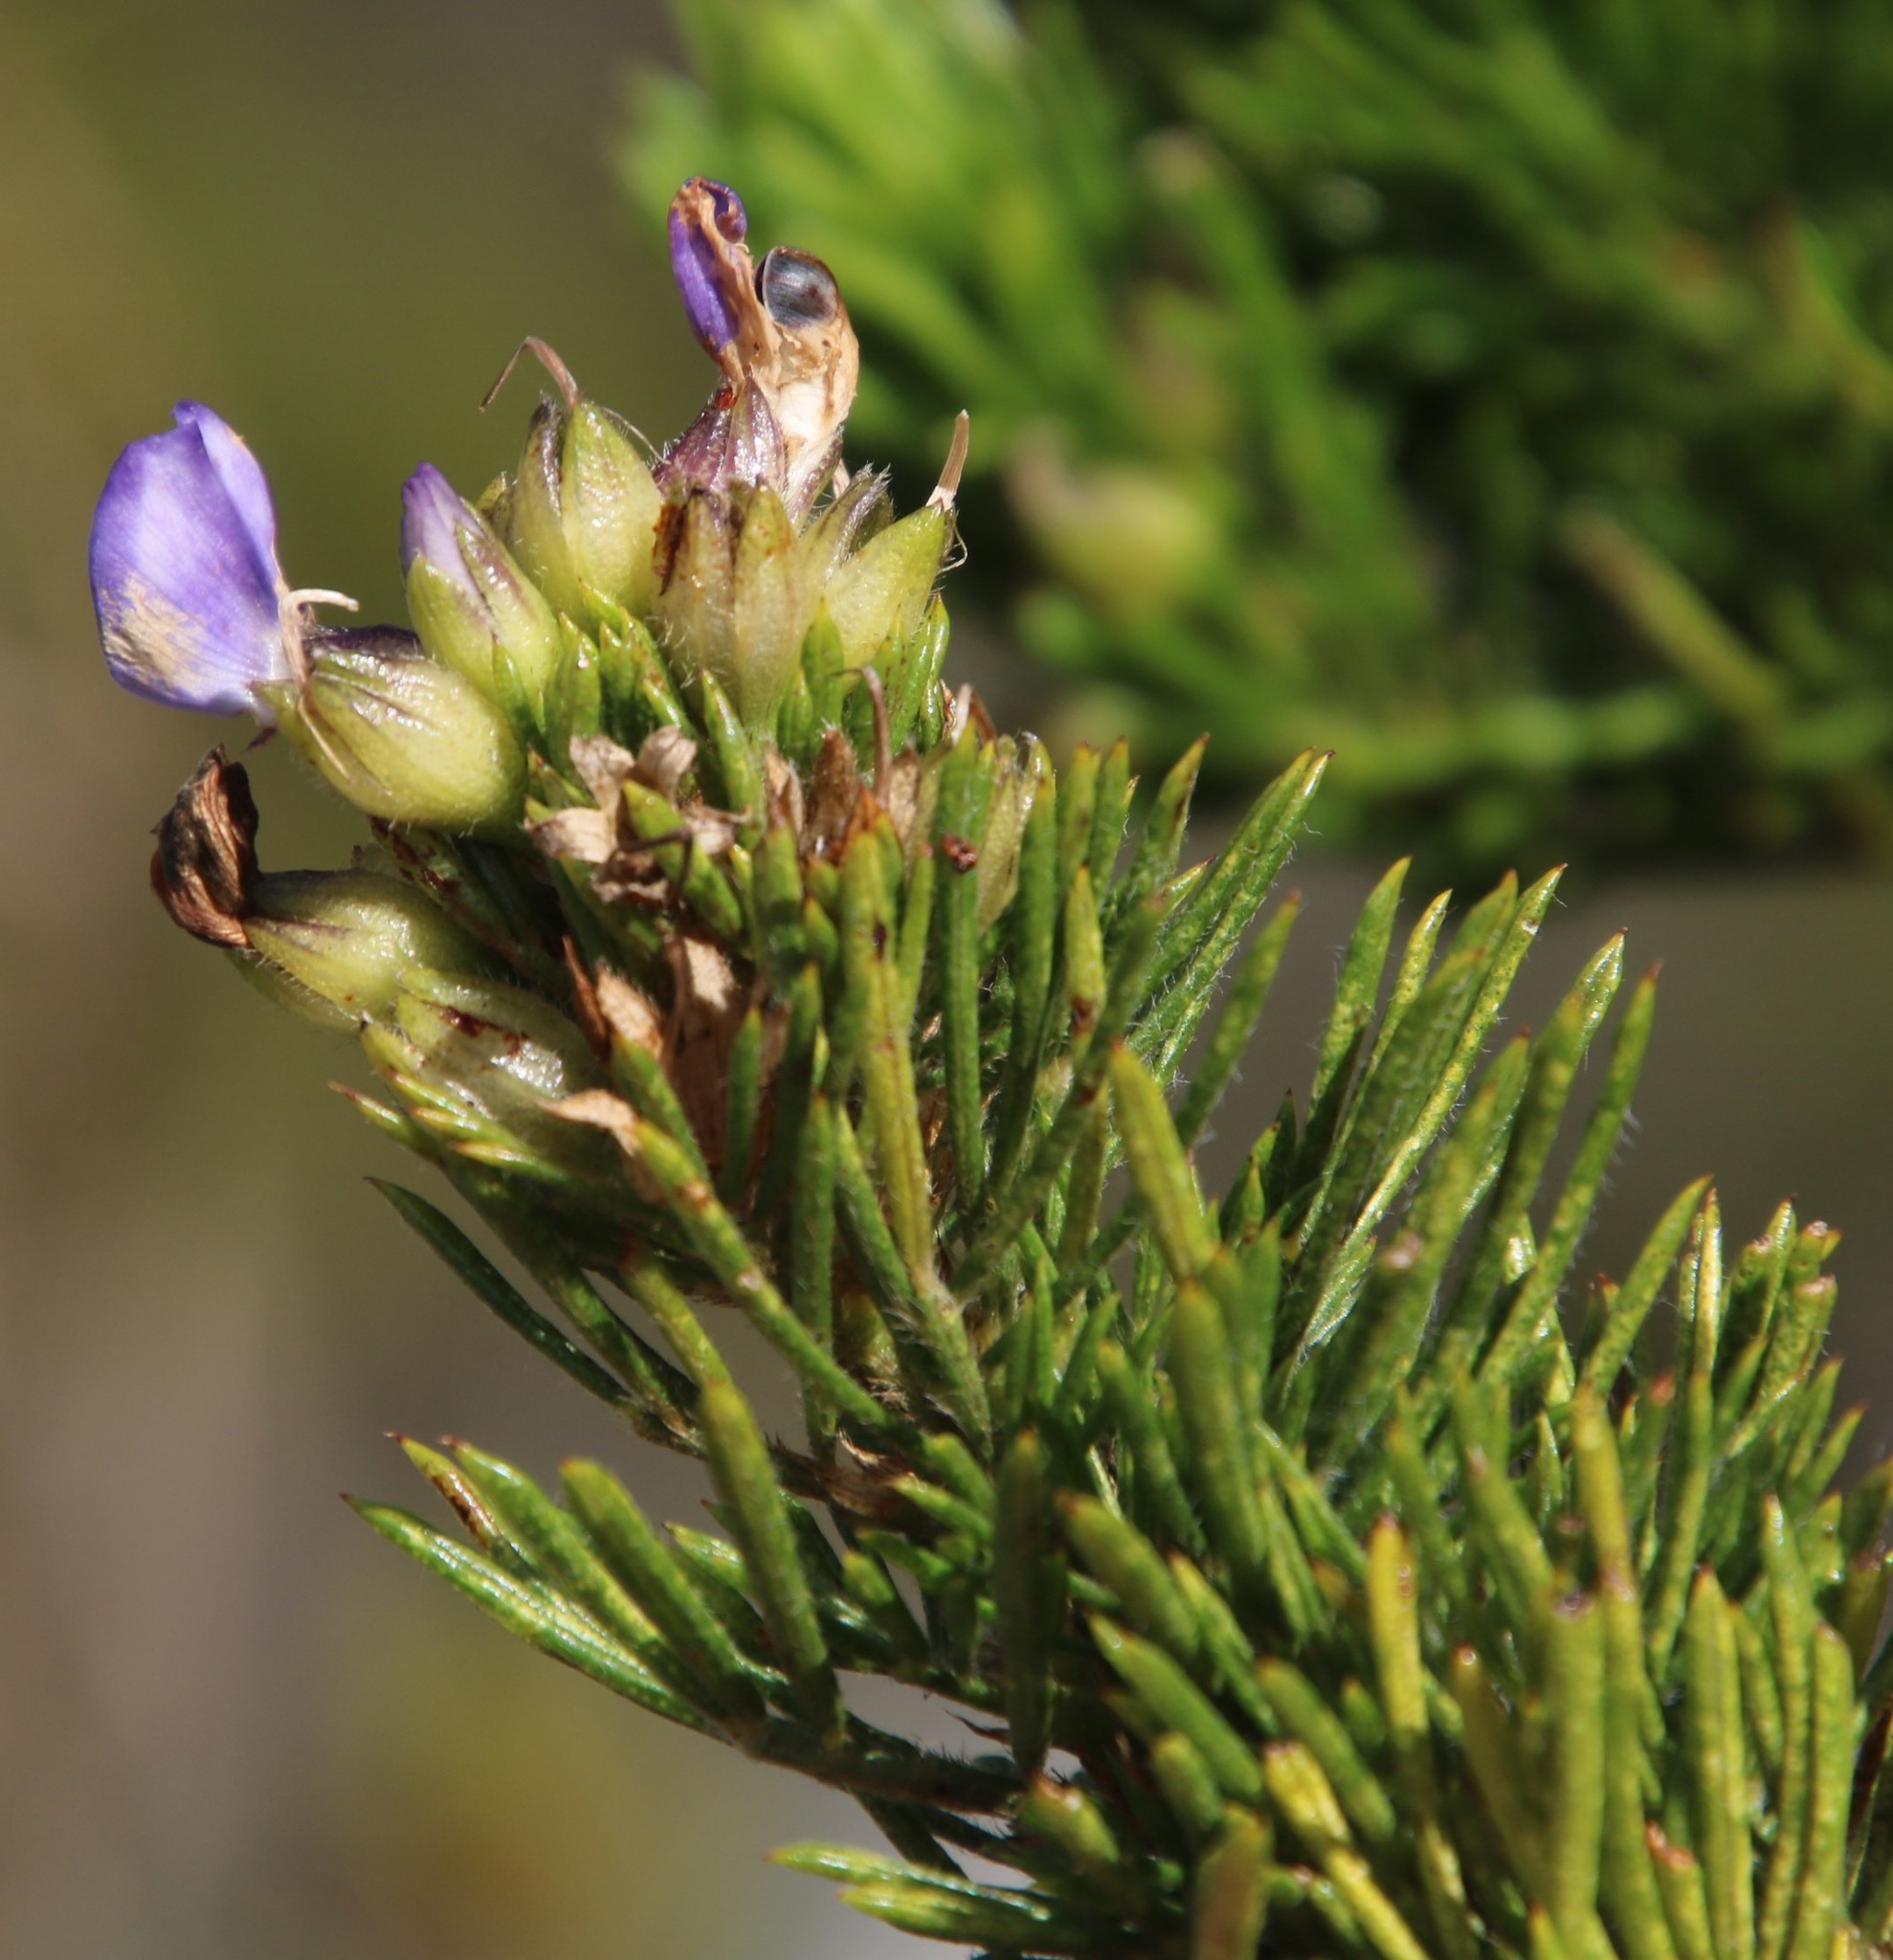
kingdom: Plantae
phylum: Tracheophyta
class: Magnoliopsida
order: Fabales
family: Fabaceae
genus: Psoralea
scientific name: Psoralea pinnata
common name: African scurfpea
